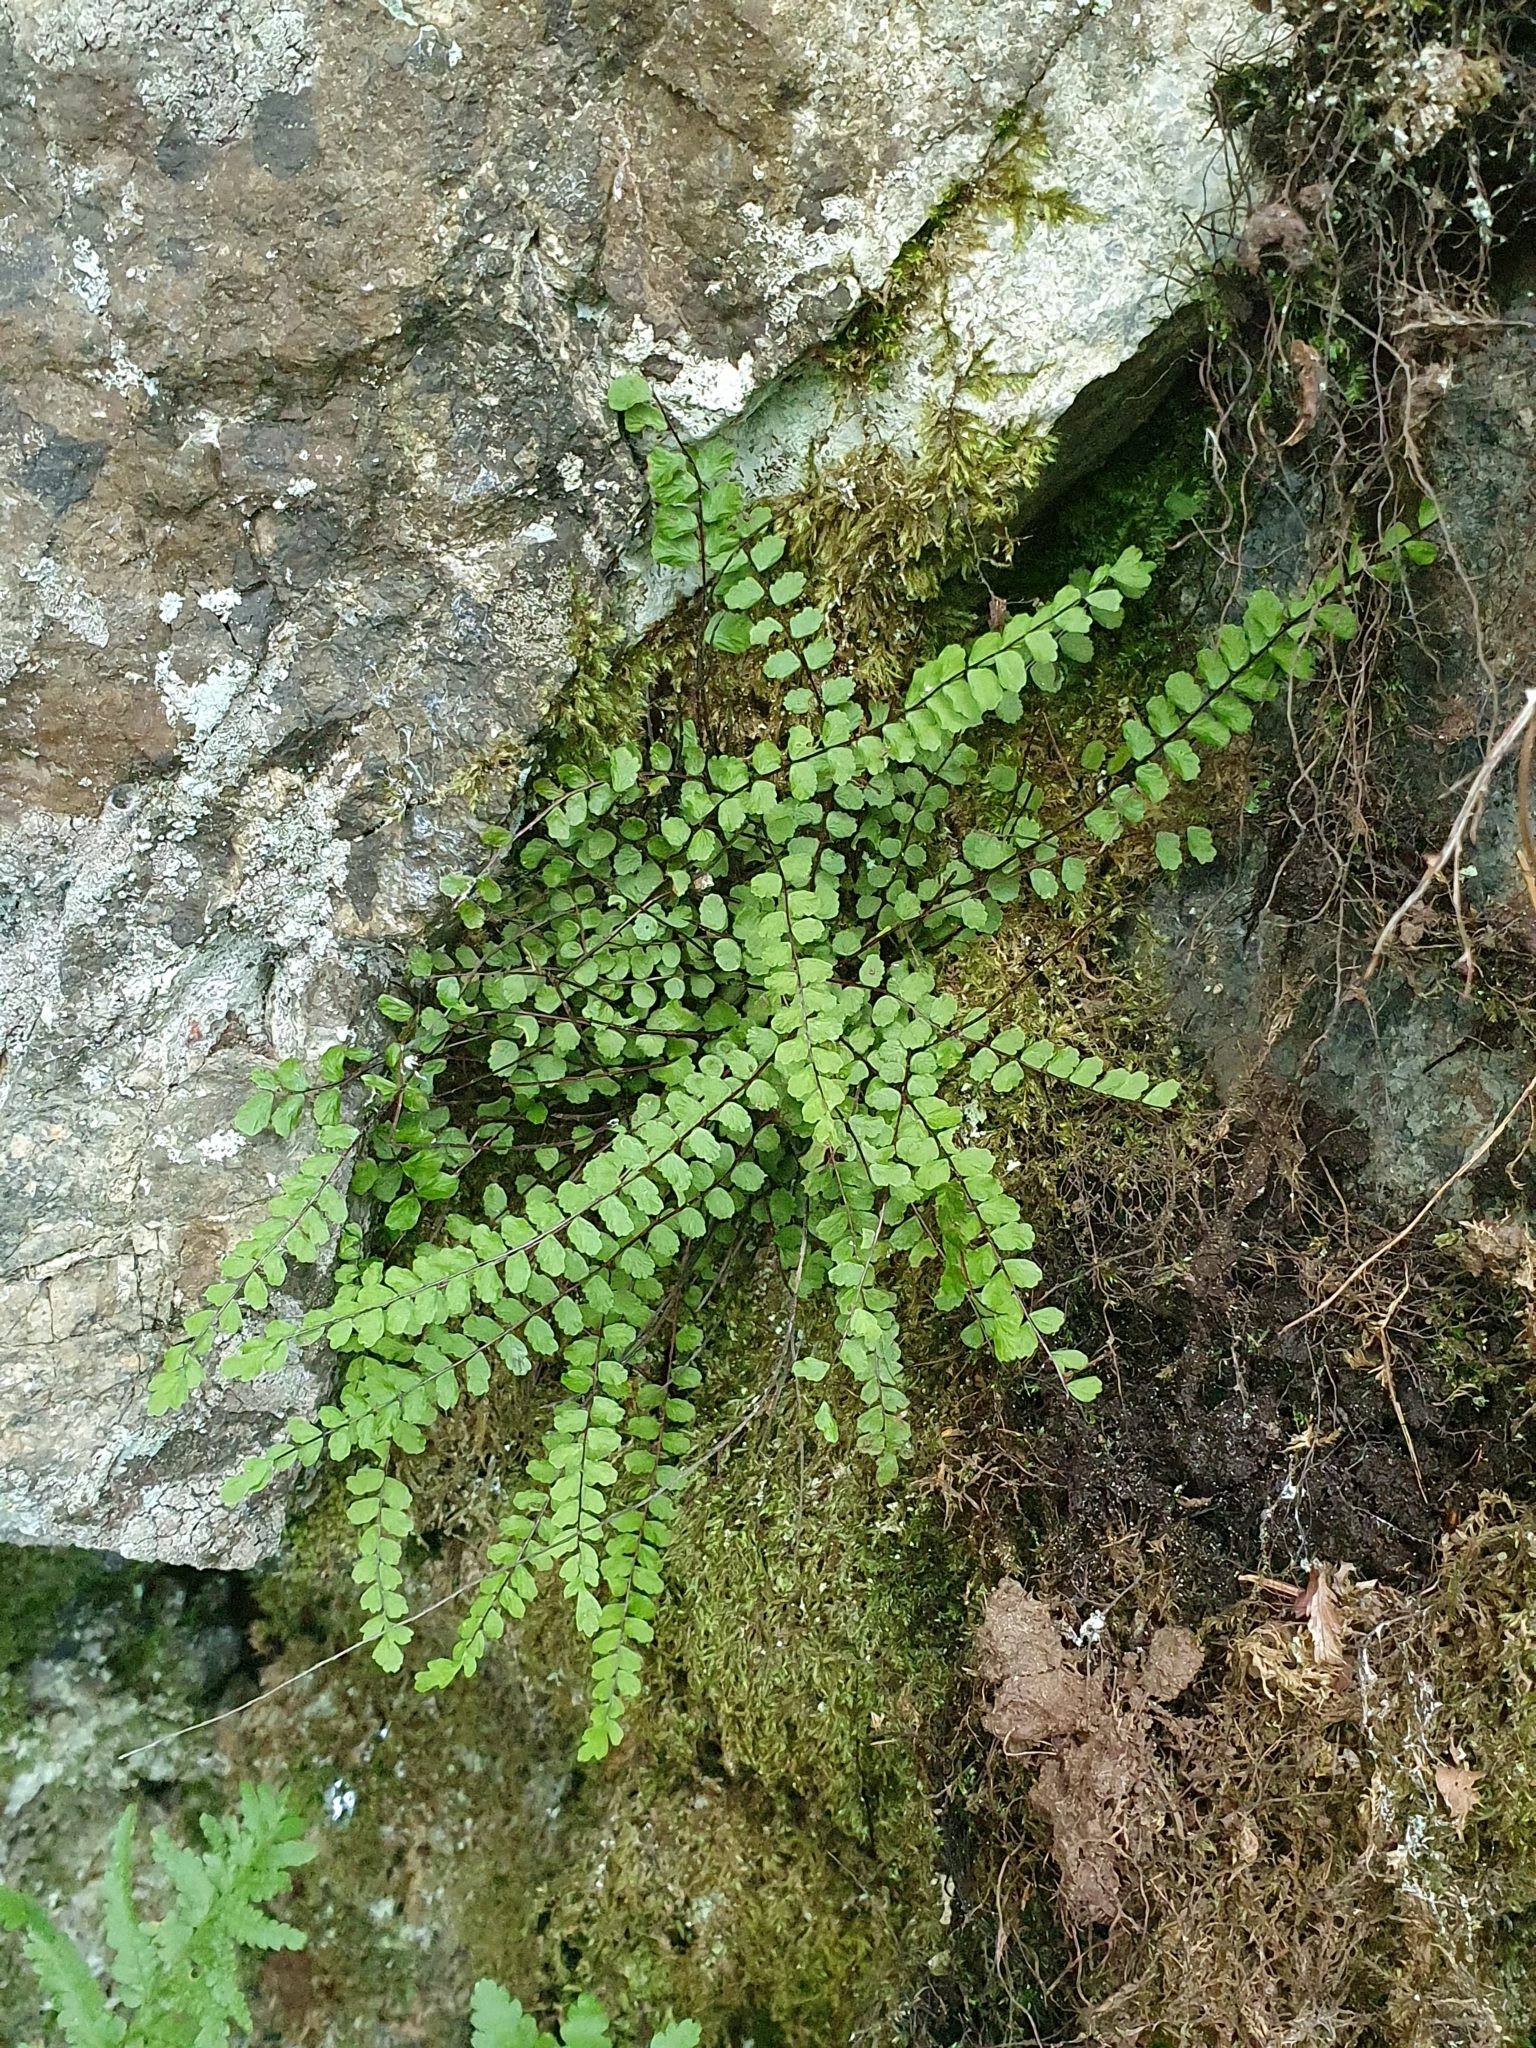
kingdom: Plantae
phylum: Tracheophyta
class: Polypodiopsida
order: Polypodiales
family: Aspleniaceae
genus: Asplenium
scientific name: Asplenium trichomanes
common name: Maidenhair spleenwort
